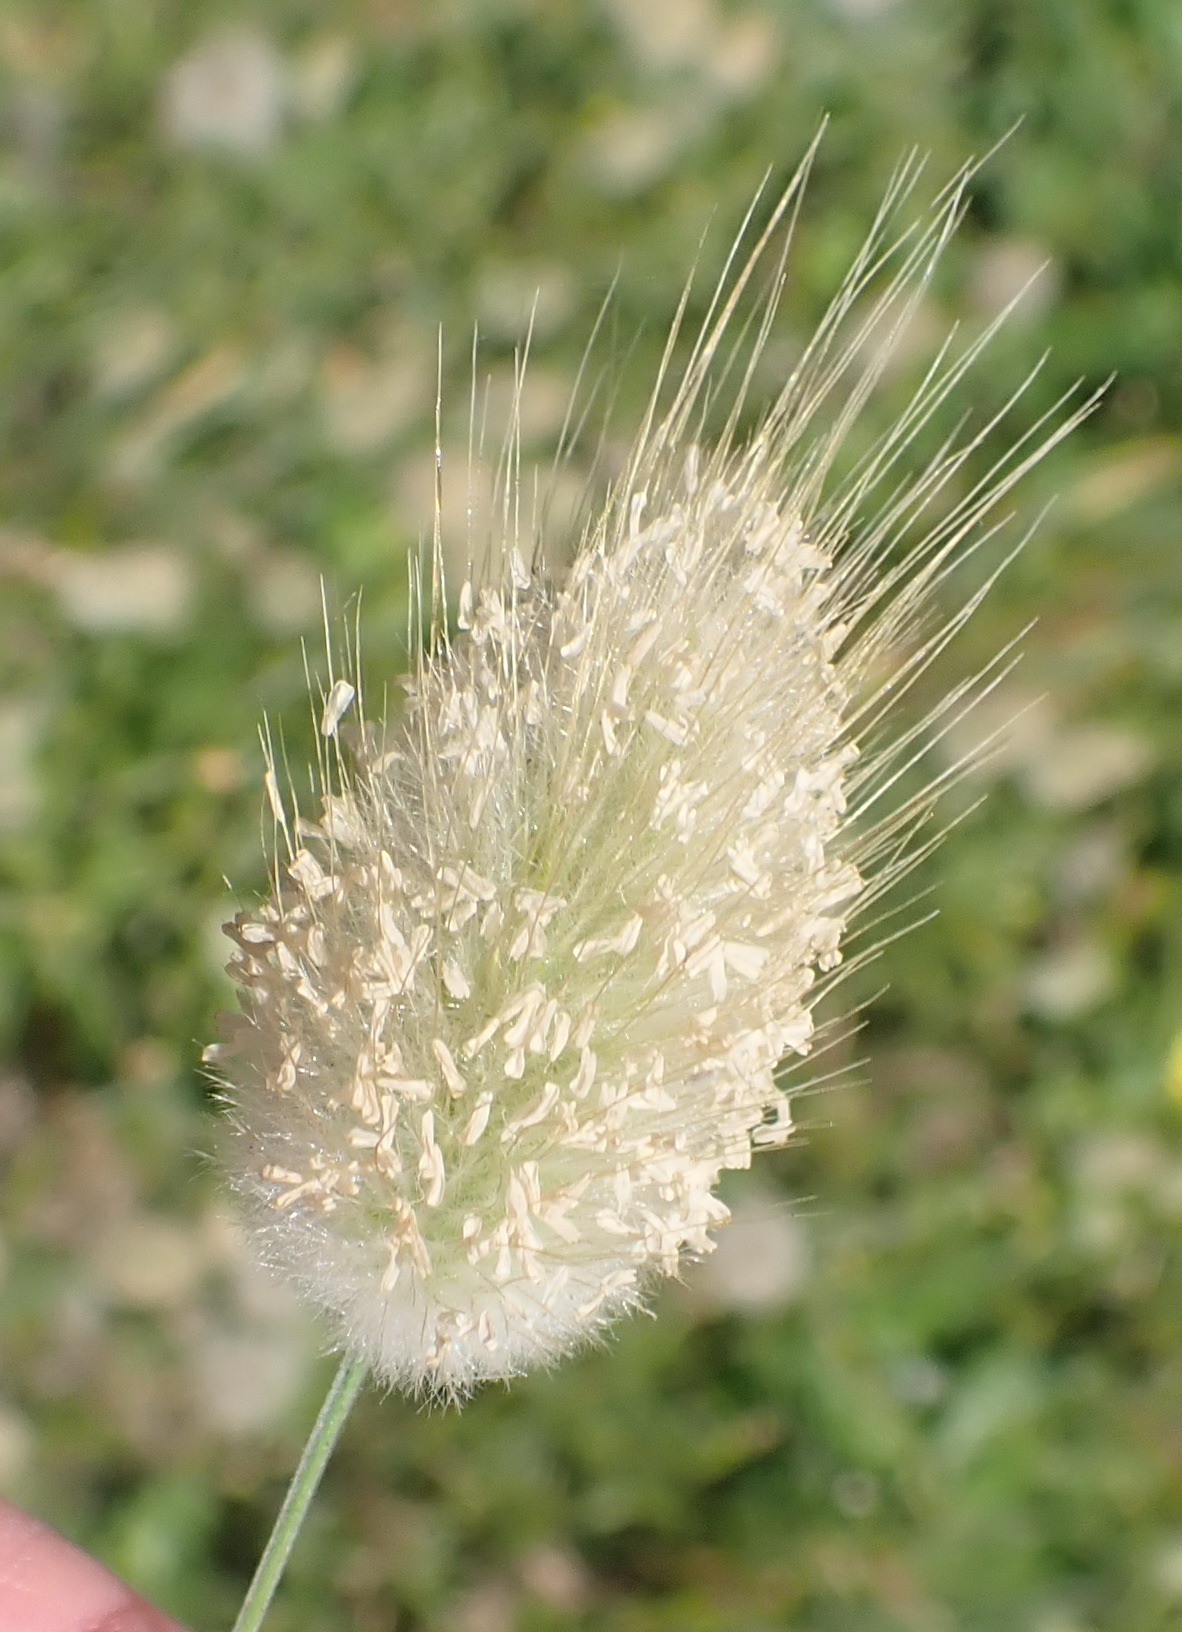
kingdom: Plantae
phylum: Tracheophyta
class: Liliopsida
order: Poales
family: Poaceae
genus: Lagurus
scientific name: Lagurus ovatus
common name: Hare's-tail
